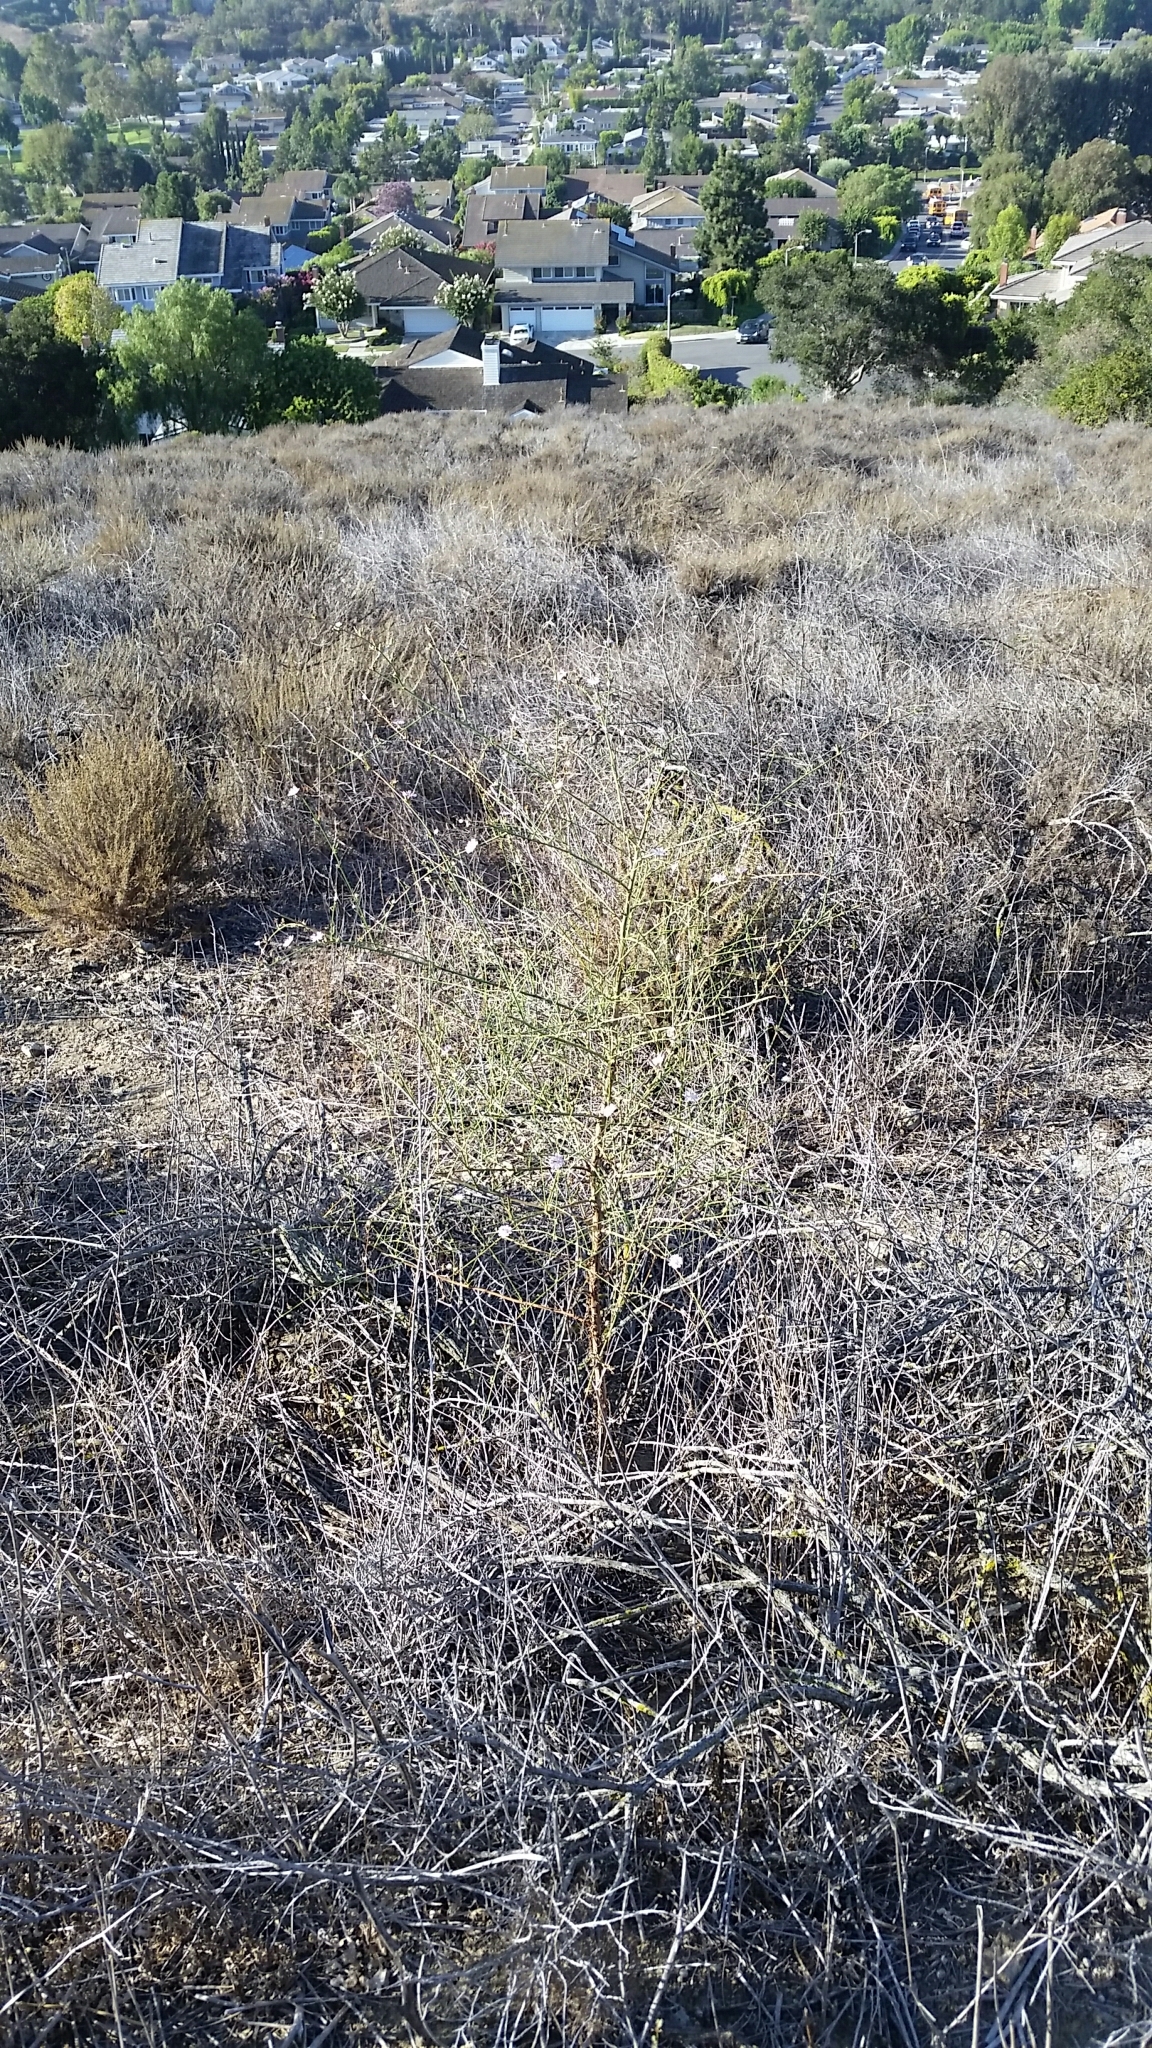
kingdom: Plantae
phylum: Tracheophyta
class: Magnoliopsida
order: Asterales
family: Asteraceae
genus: Stephanomeria
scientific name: Stephanomeria diegensis
